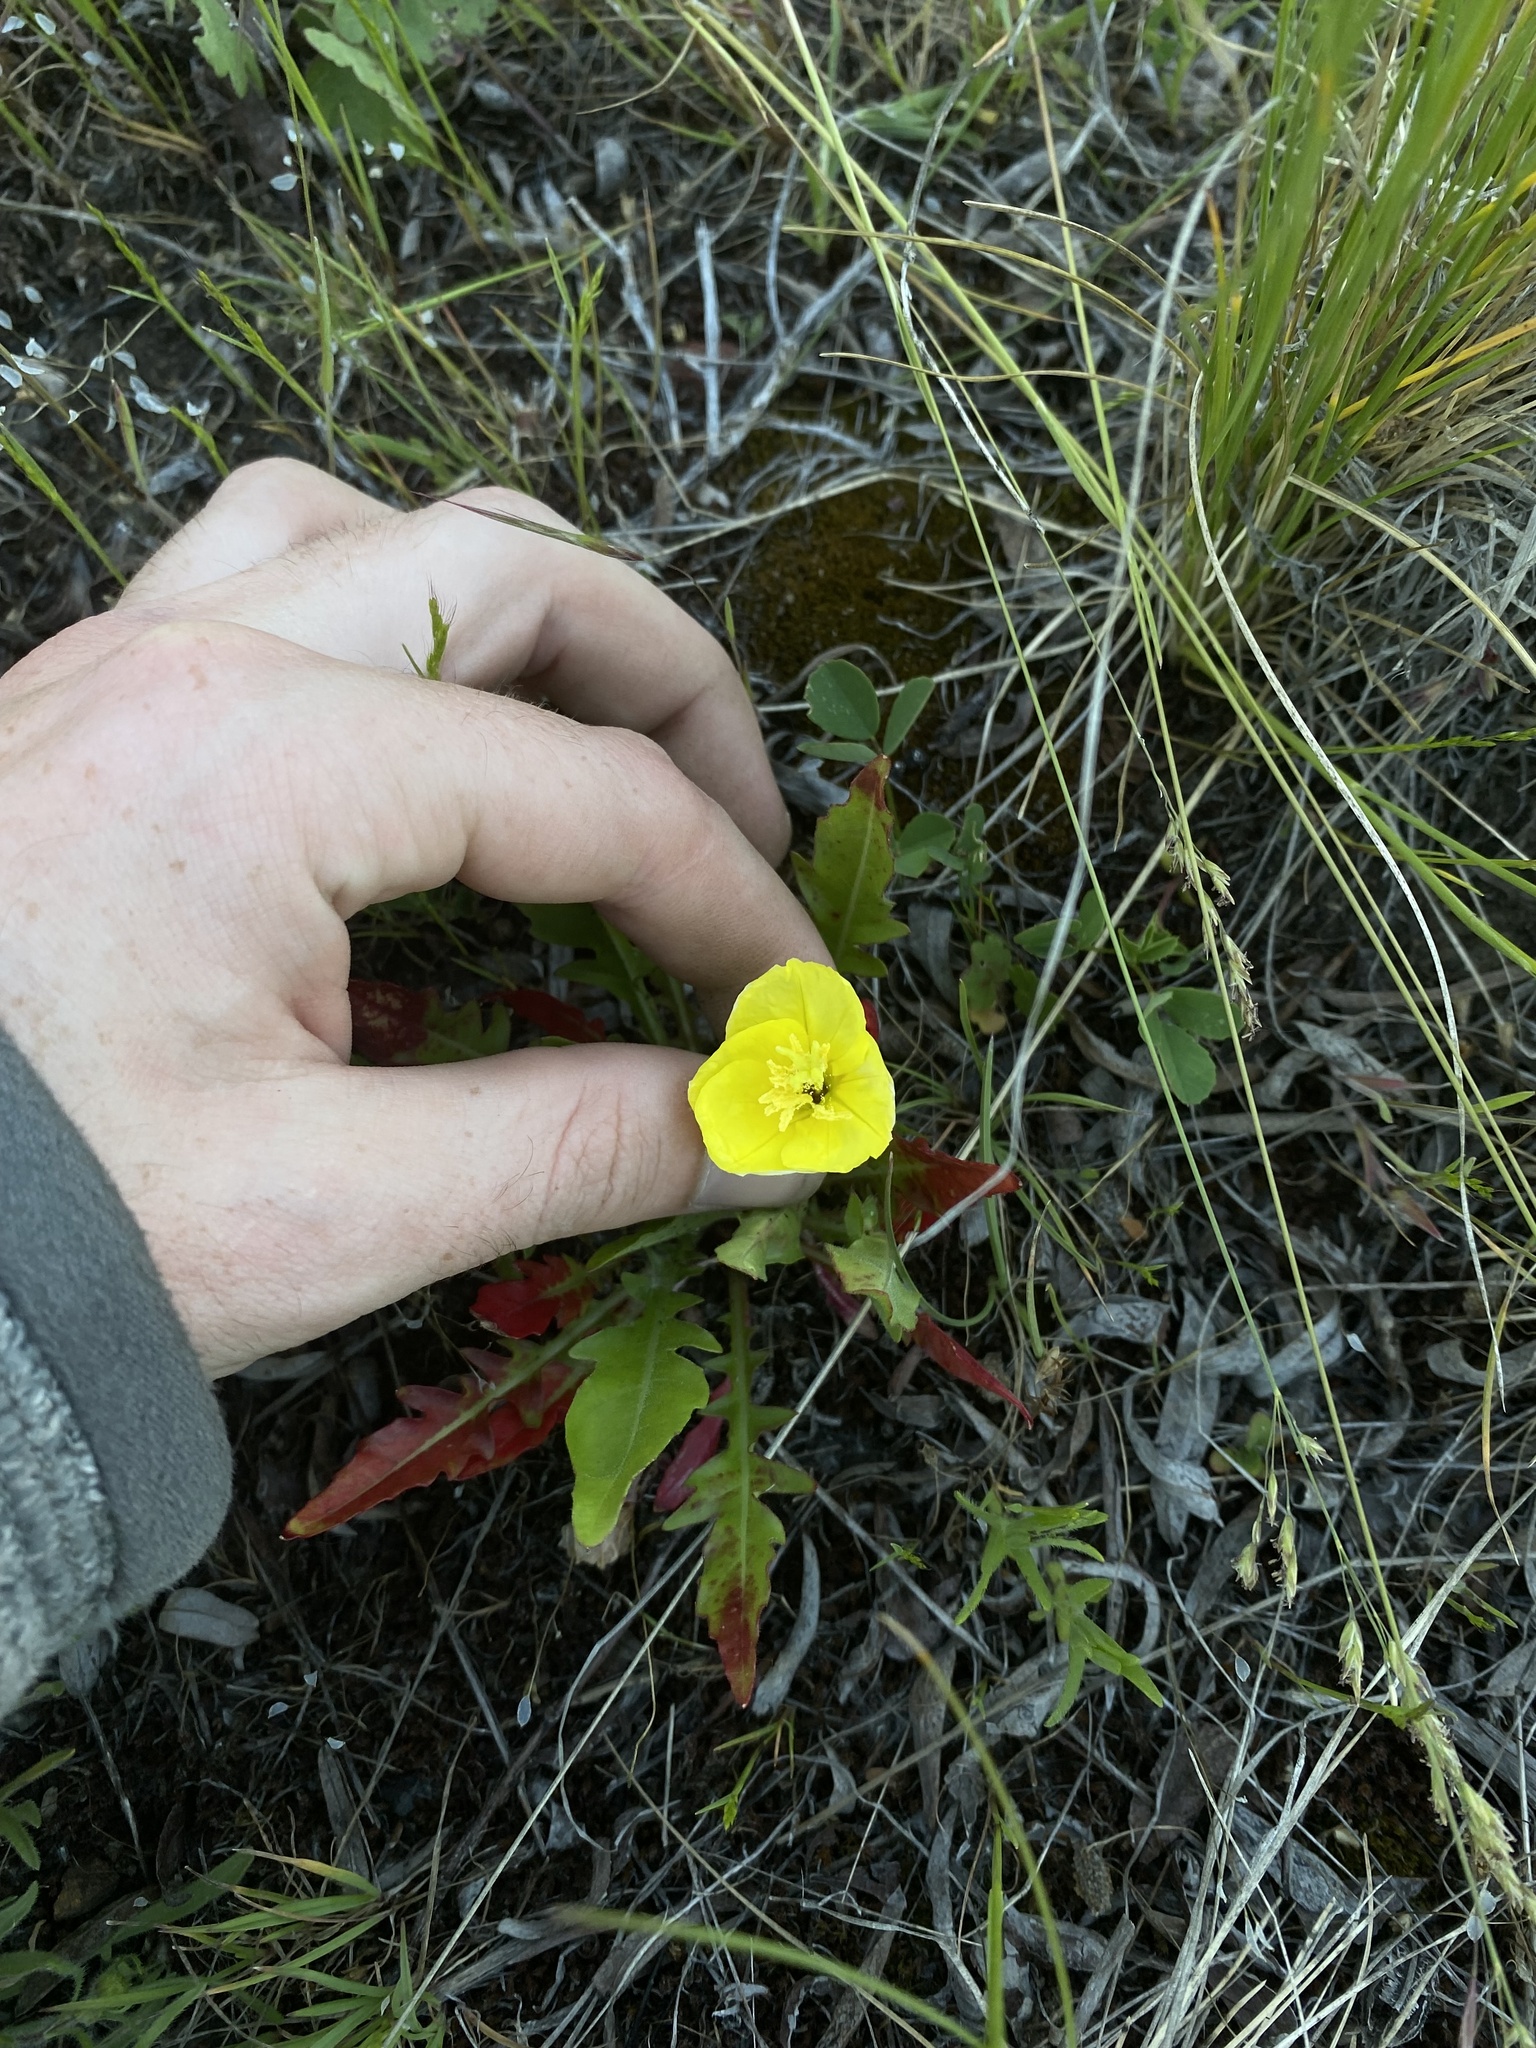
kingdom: Plantae
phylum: Tracheophyta
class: Magnoliopsida
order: Myrtales
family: Onagraceae
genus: Taraxia
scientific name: Taraxia subacaulis
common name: Diffuseflower evening primrose
